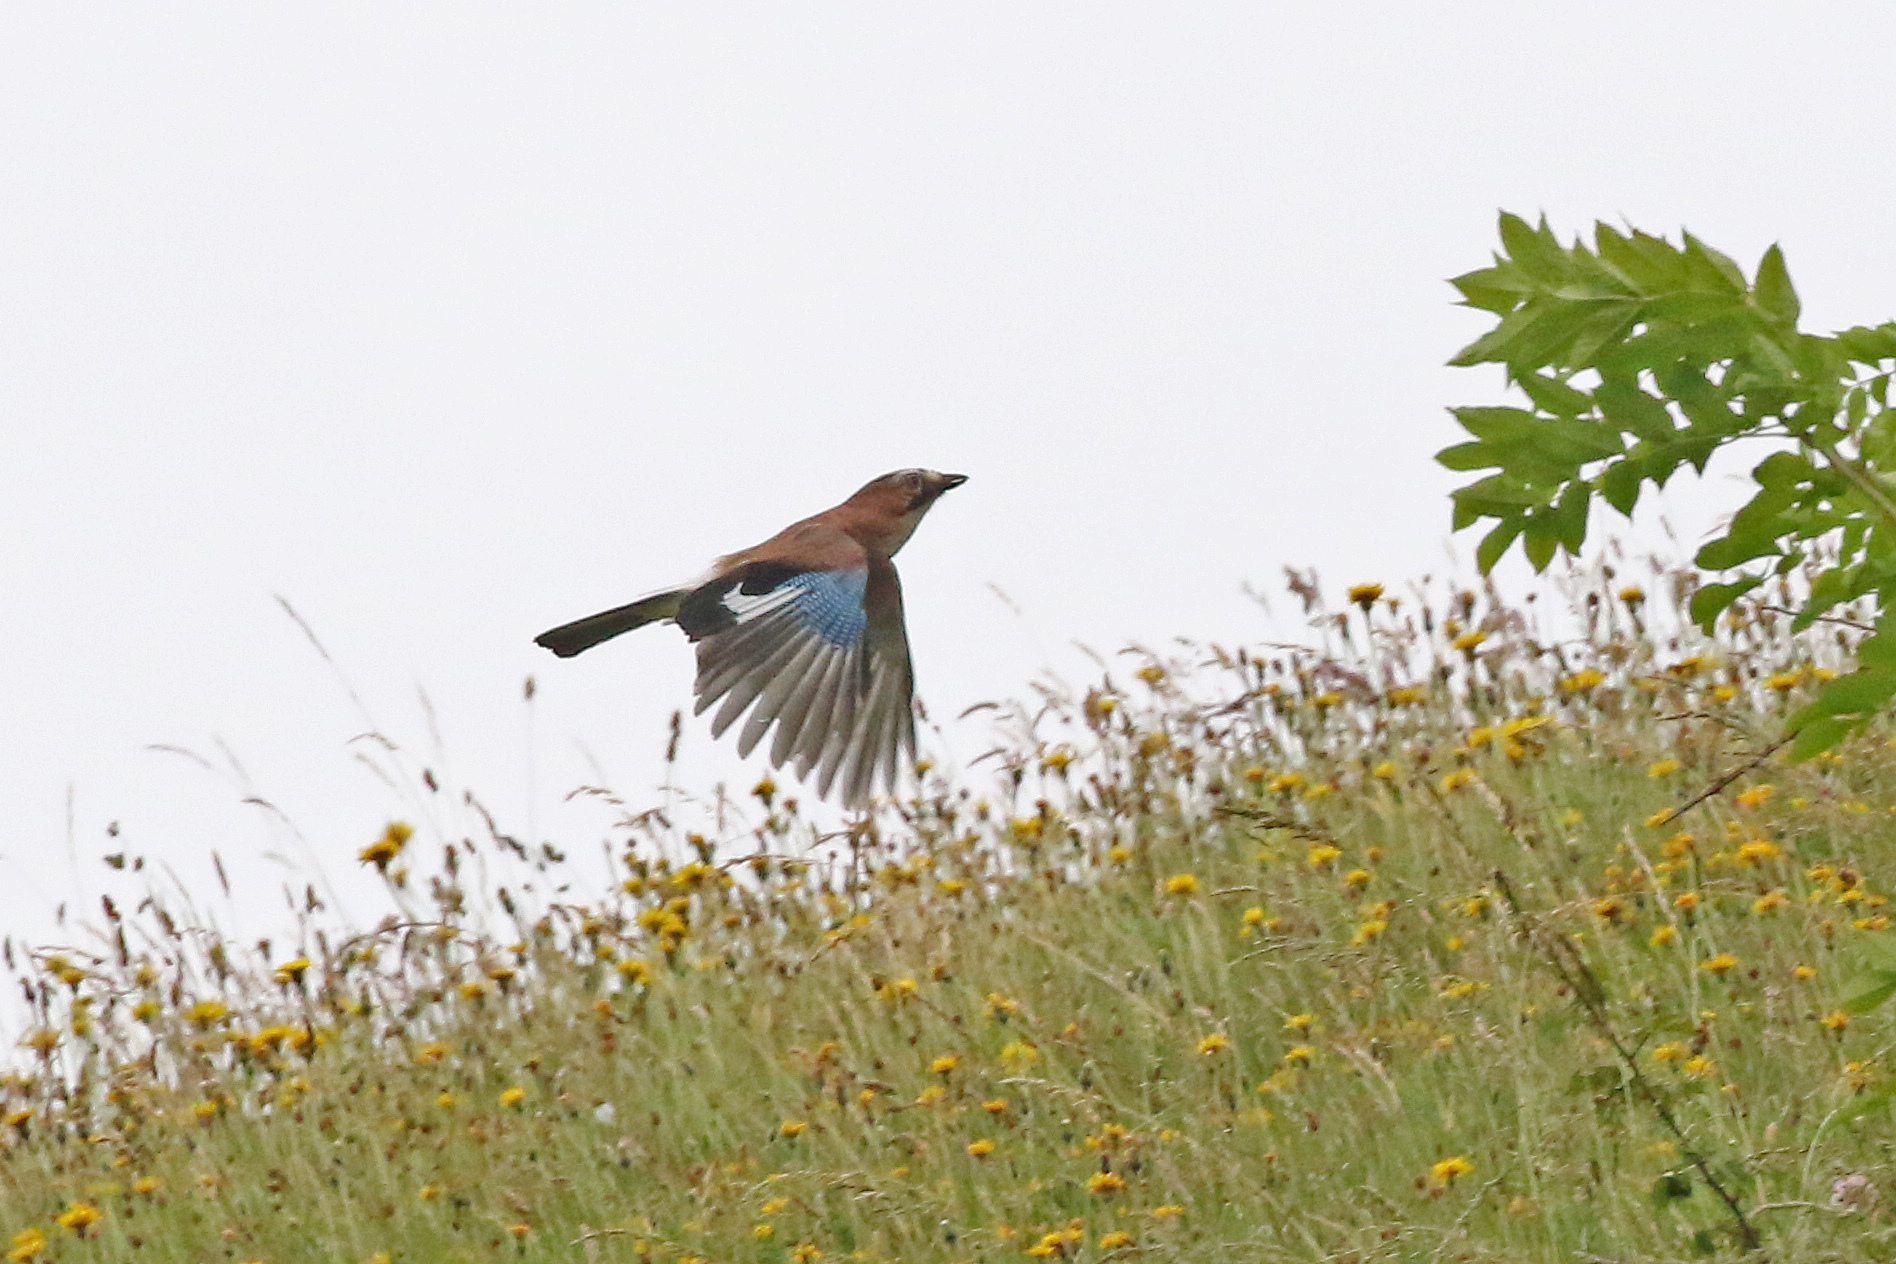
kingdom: Animalia
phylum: Chordata
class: Aves
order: Passeriformes
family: Corvidae
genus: Garrulus
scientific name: Garrulus glandarius
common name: Eurasian jay
